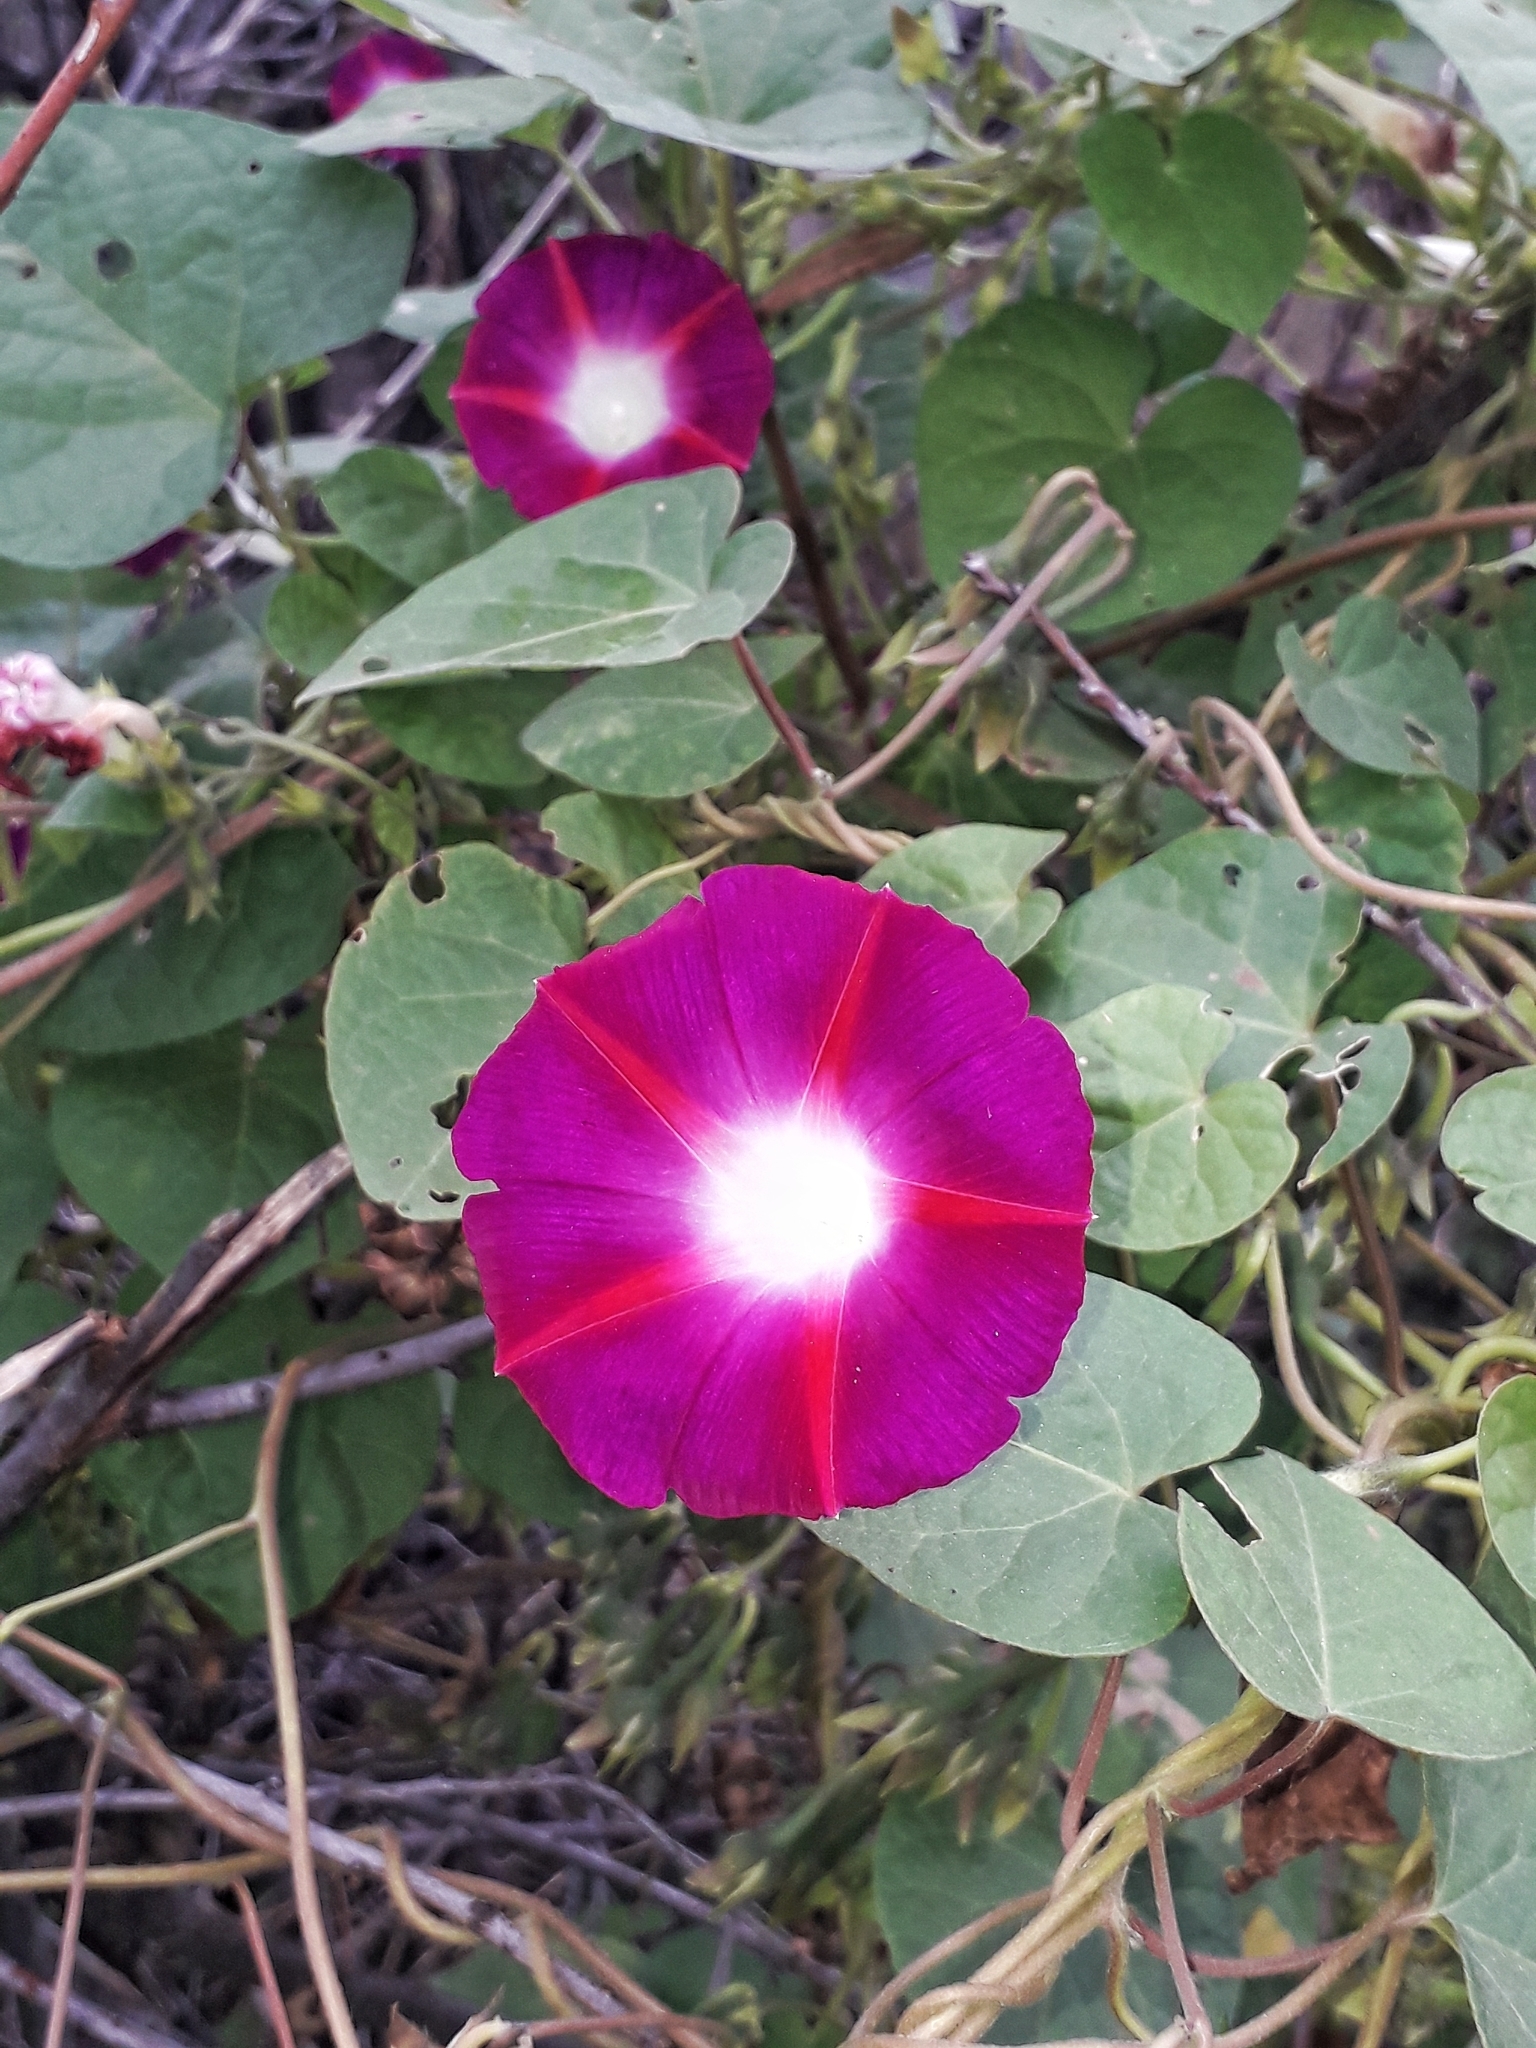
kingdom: Plantae
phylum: Tracheophyta
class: Magnoliopsida
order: Solanales
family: Convolvulaceae
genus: Ipomoea
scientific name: Ipomoea purpurea
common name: Common morning-glory
